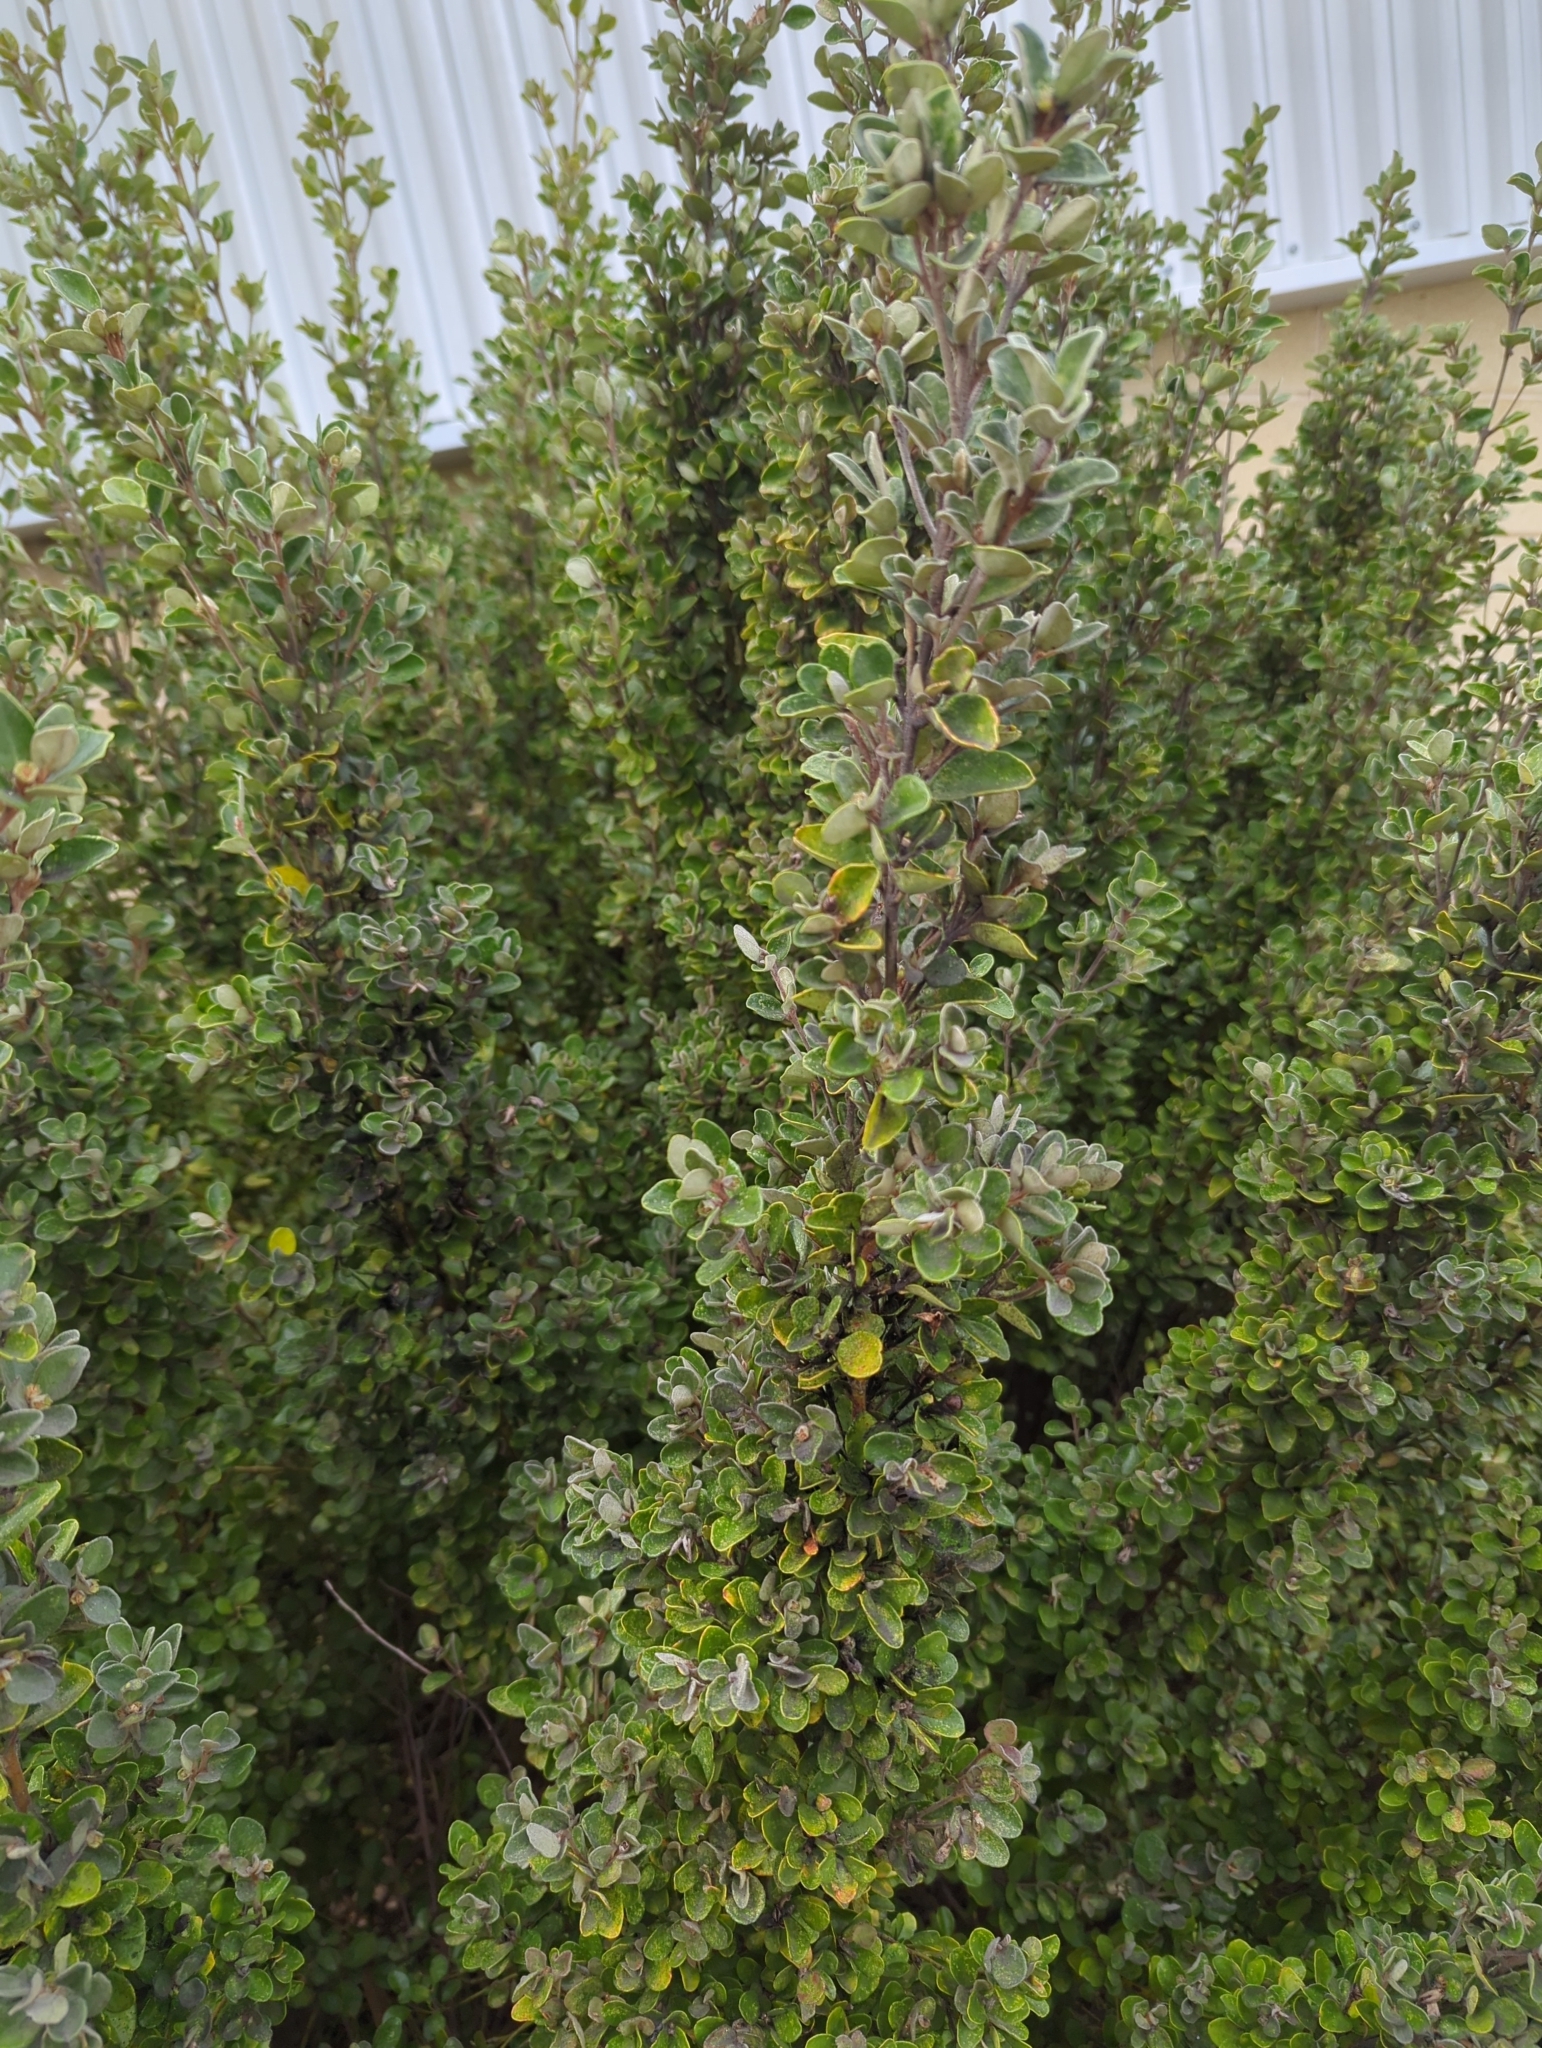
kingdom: Plantae
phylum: Tracheophyta
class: Magnoliopsida
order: Sapindales
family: Rutaceae
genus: Correa
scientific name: Correa alba
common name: White correa
